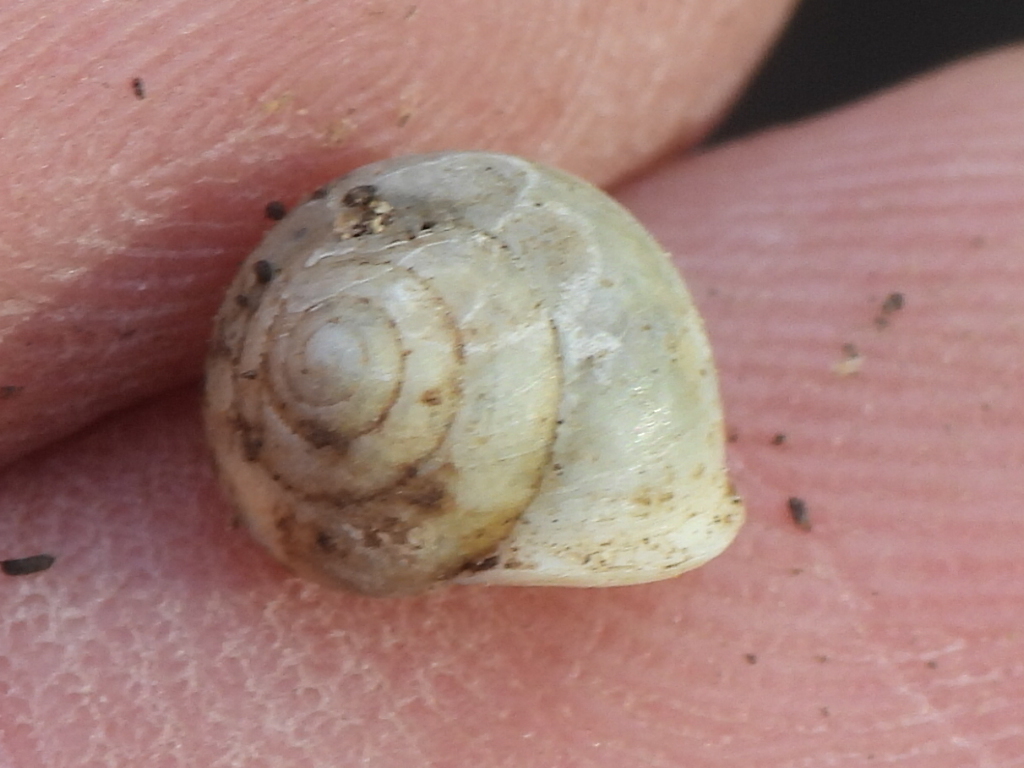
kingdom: Animalia
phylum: Mollusca
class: Gastropoda
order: Cycloneritida
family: Helicinidae
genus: Helicina
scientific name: Helicina orbiculata
